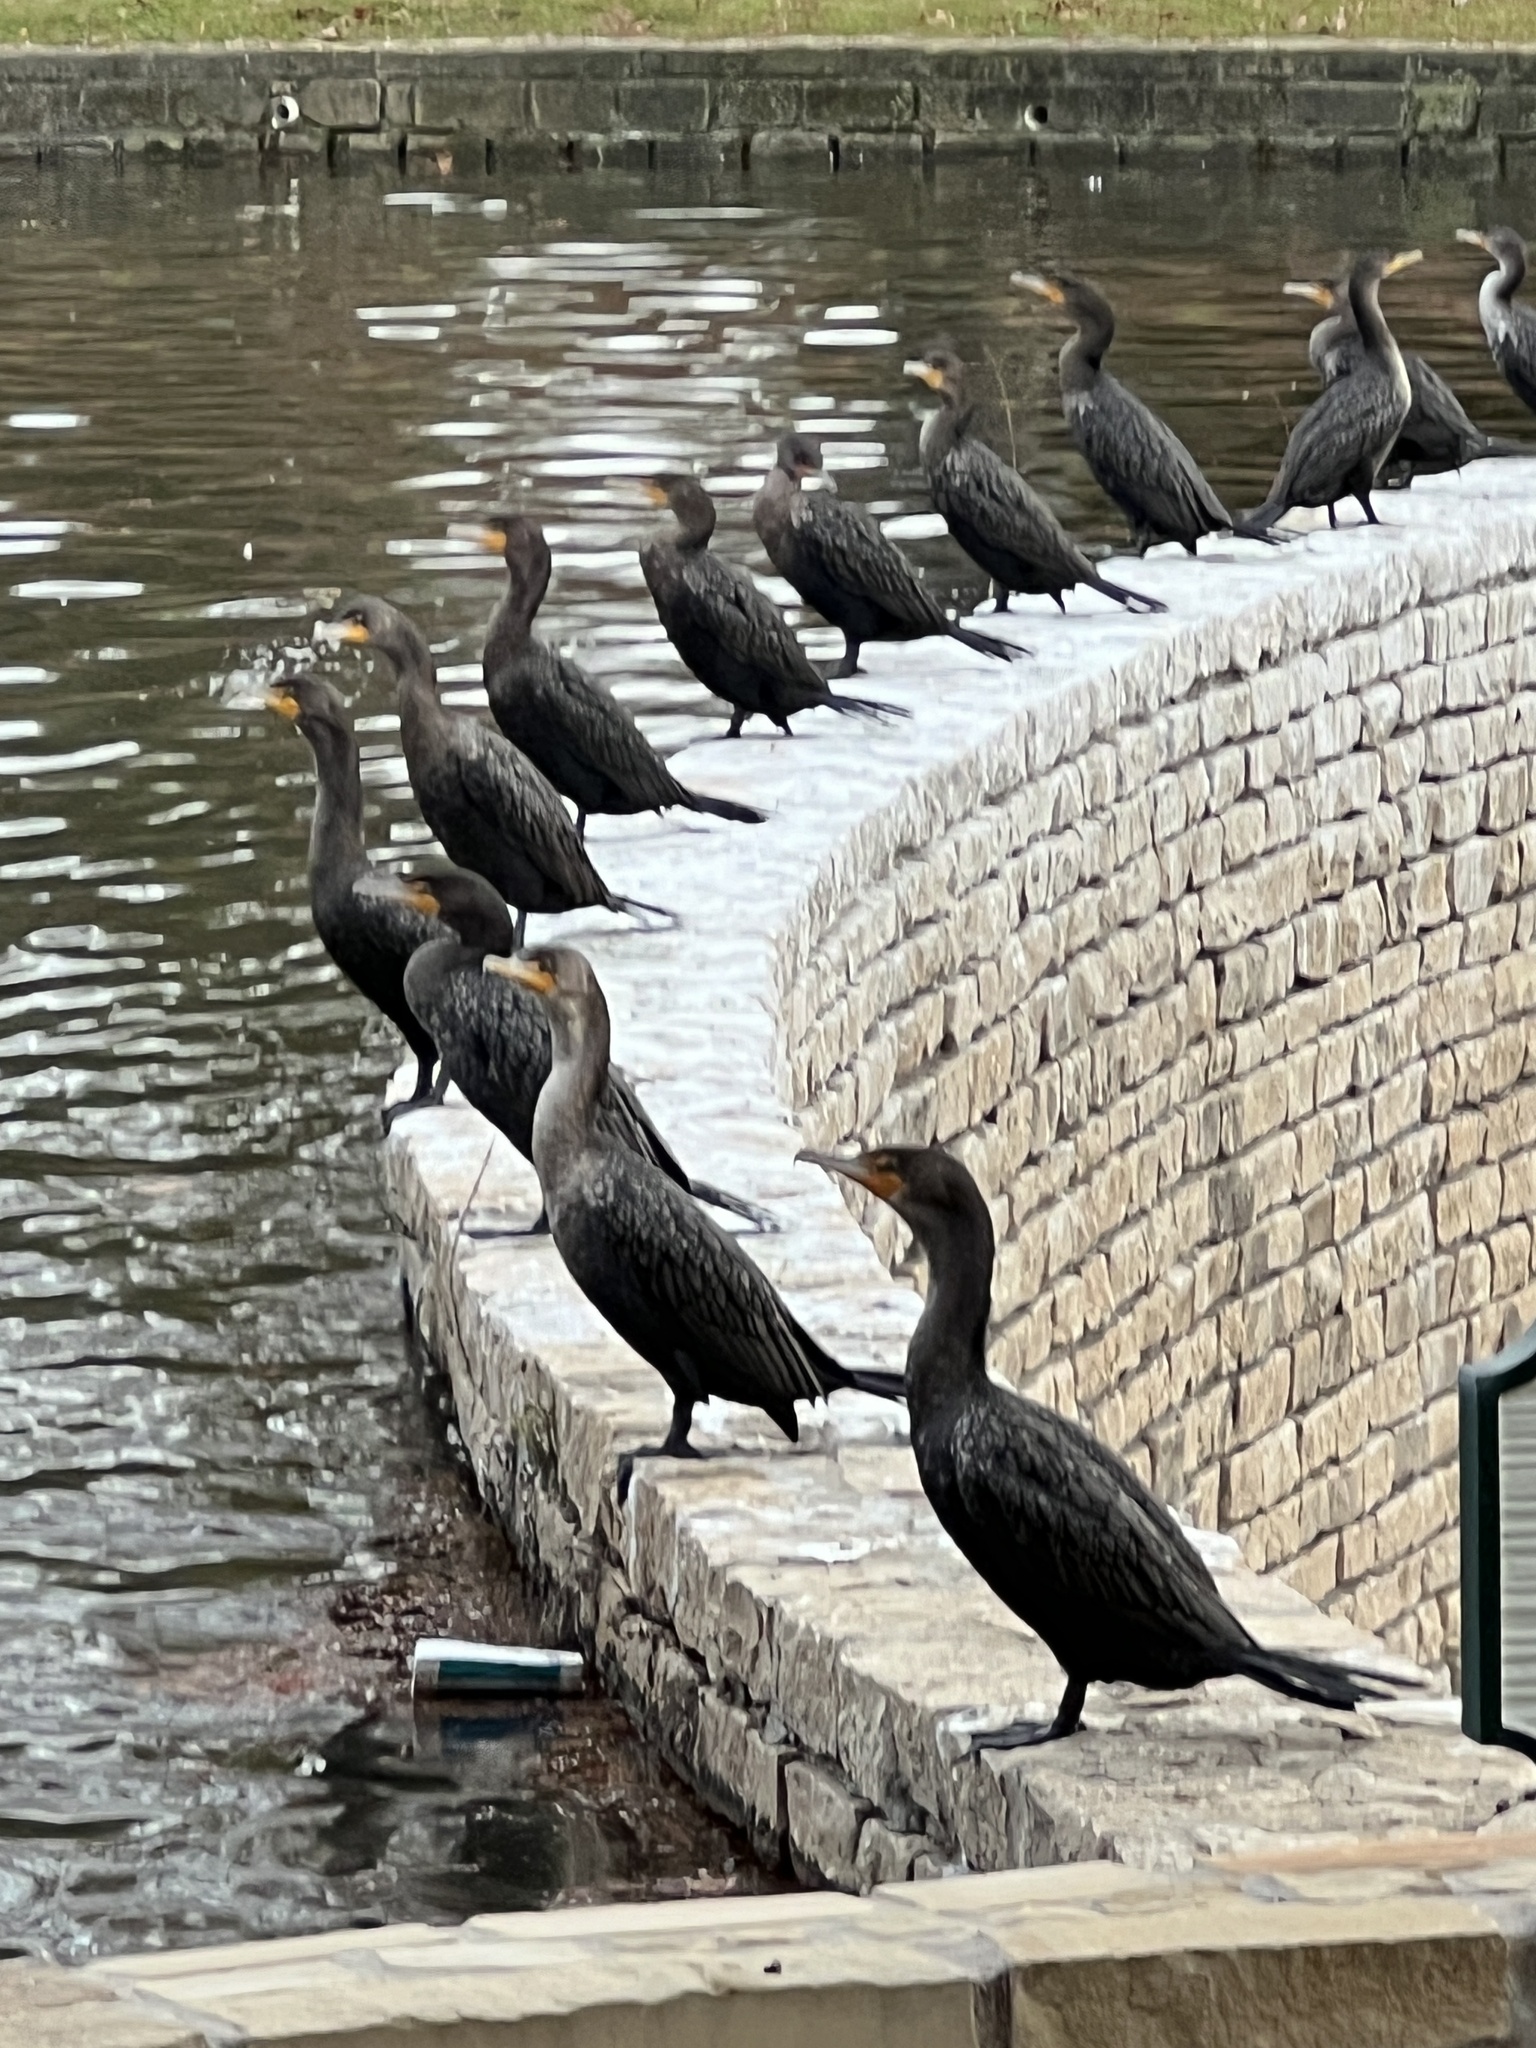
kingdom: Animalia
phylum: Chordata
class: Aves
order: Suliformes
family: Phalacrocoracidae
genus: Phalacrocorax
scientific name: Phalacrocorax auritus
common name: Double-crested cormorant
